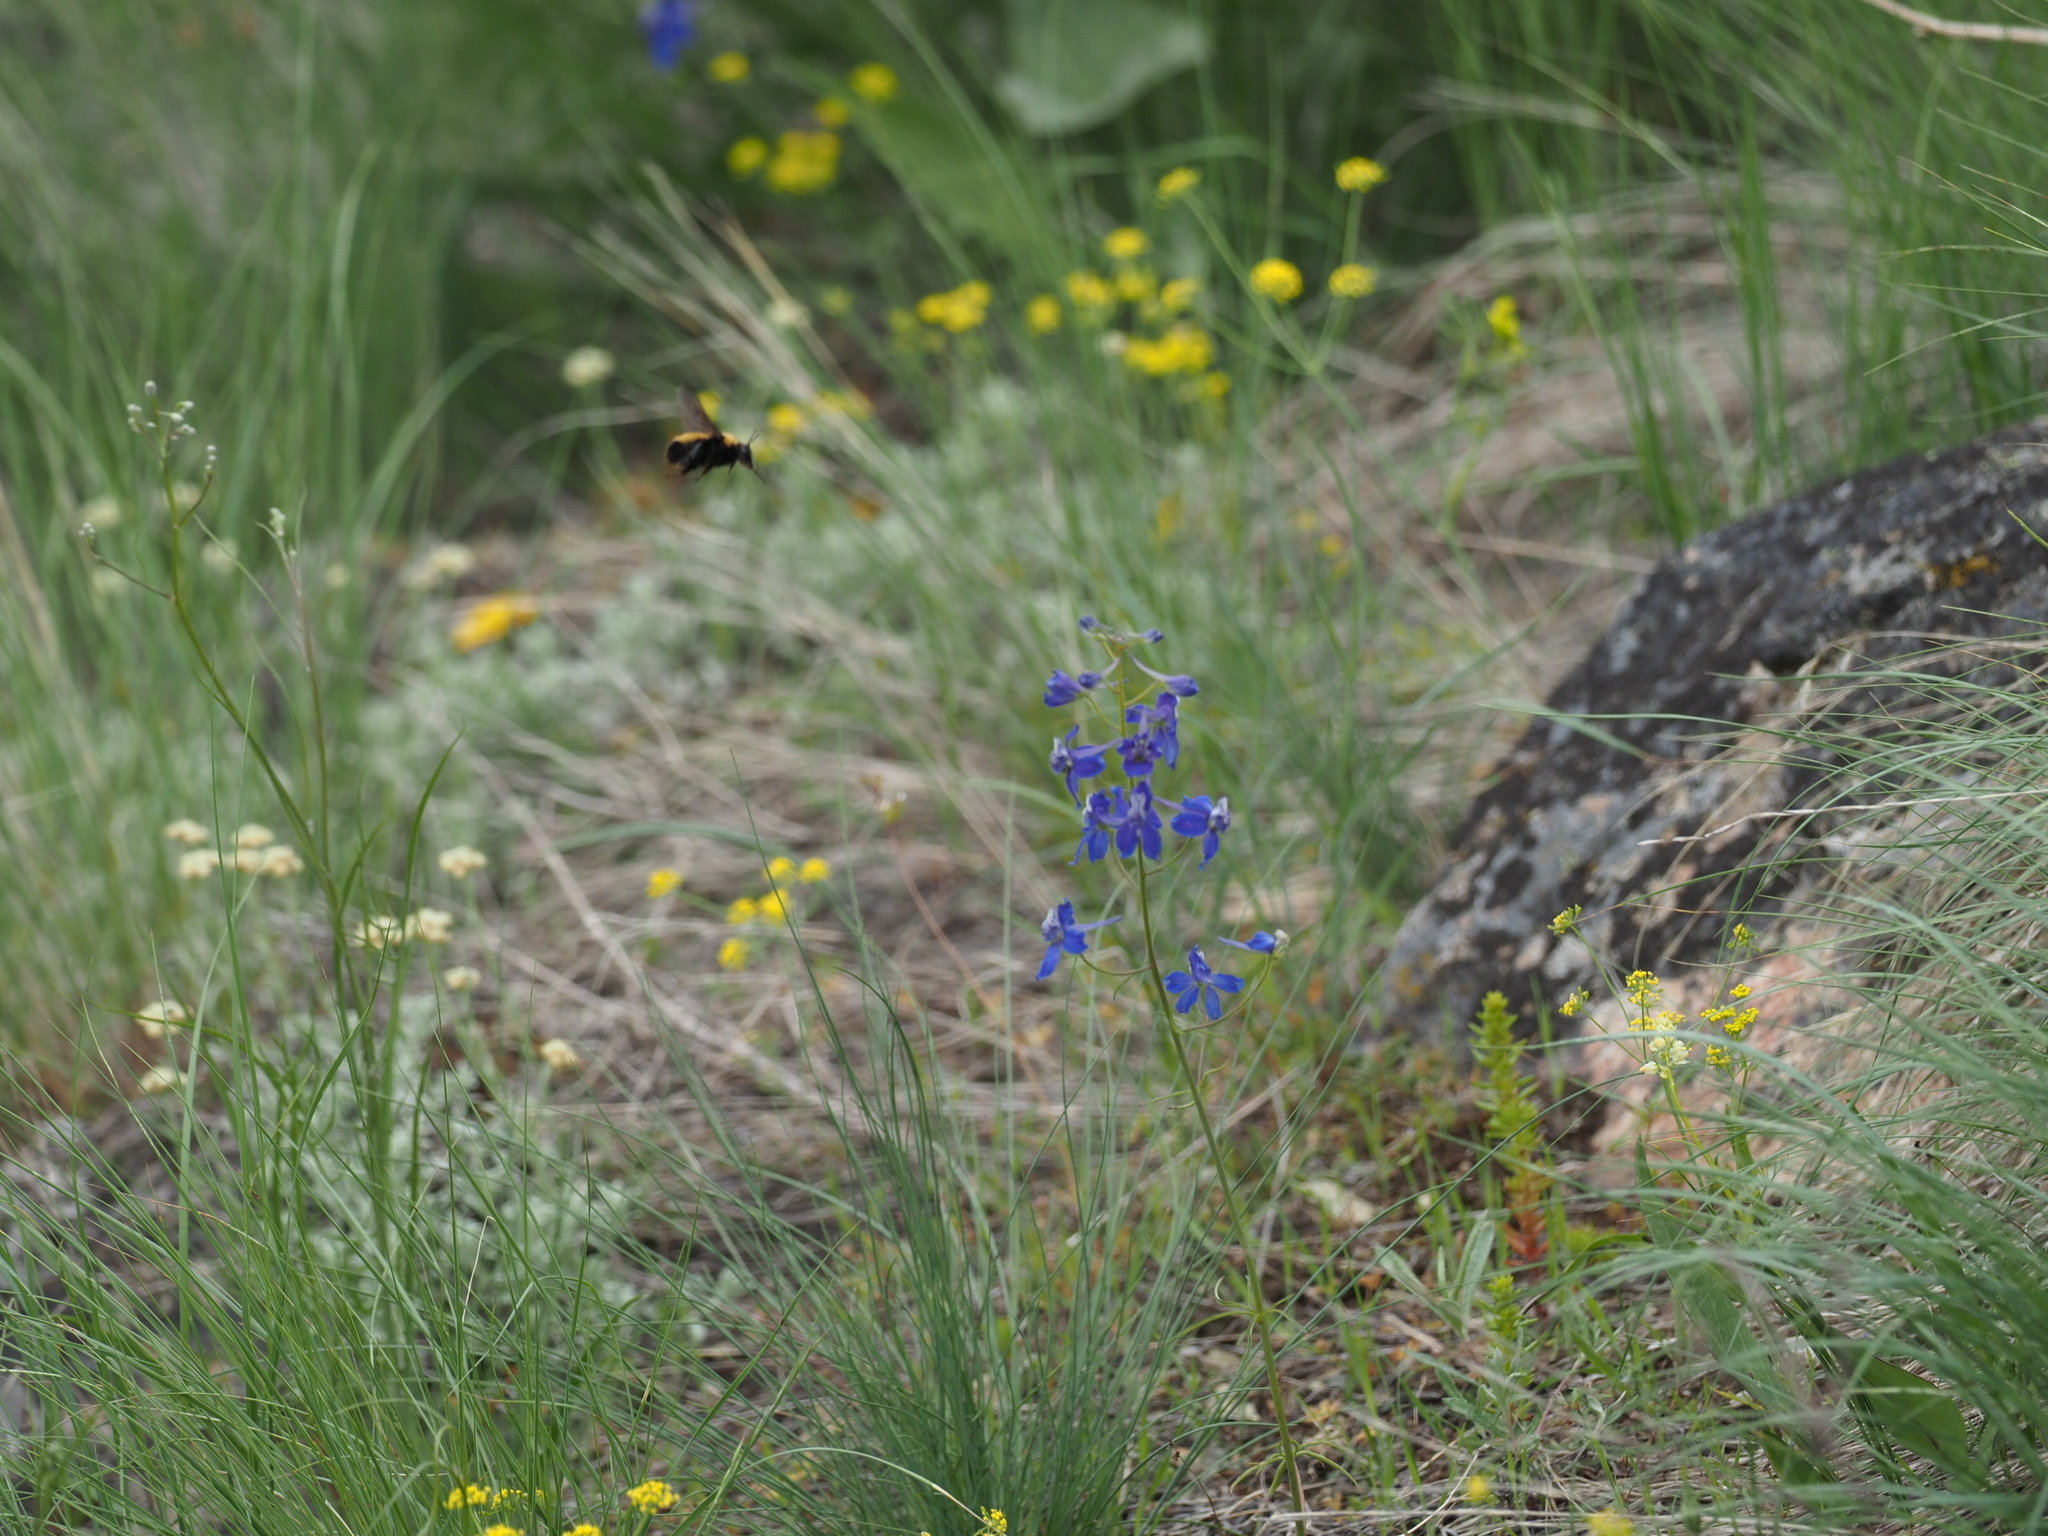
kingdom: Animalia
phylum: Arthropoda
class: Insecta
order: Hymenoptera
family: Apidae
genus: Bombus
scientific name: Bombus nevadensis
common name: Nevada bumble bee
